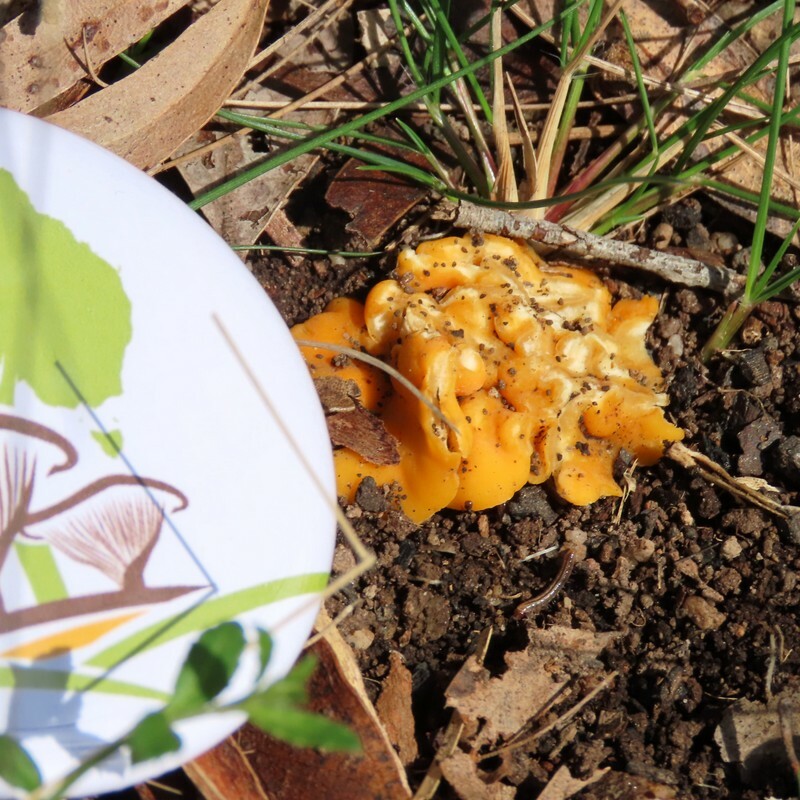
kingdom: Fungi
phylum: Ascomycota
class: Leotiomycetes
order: Helotiales
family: Helotiaceae
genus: Phaeohelotium
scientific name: Phaeohelotium baileyanum
